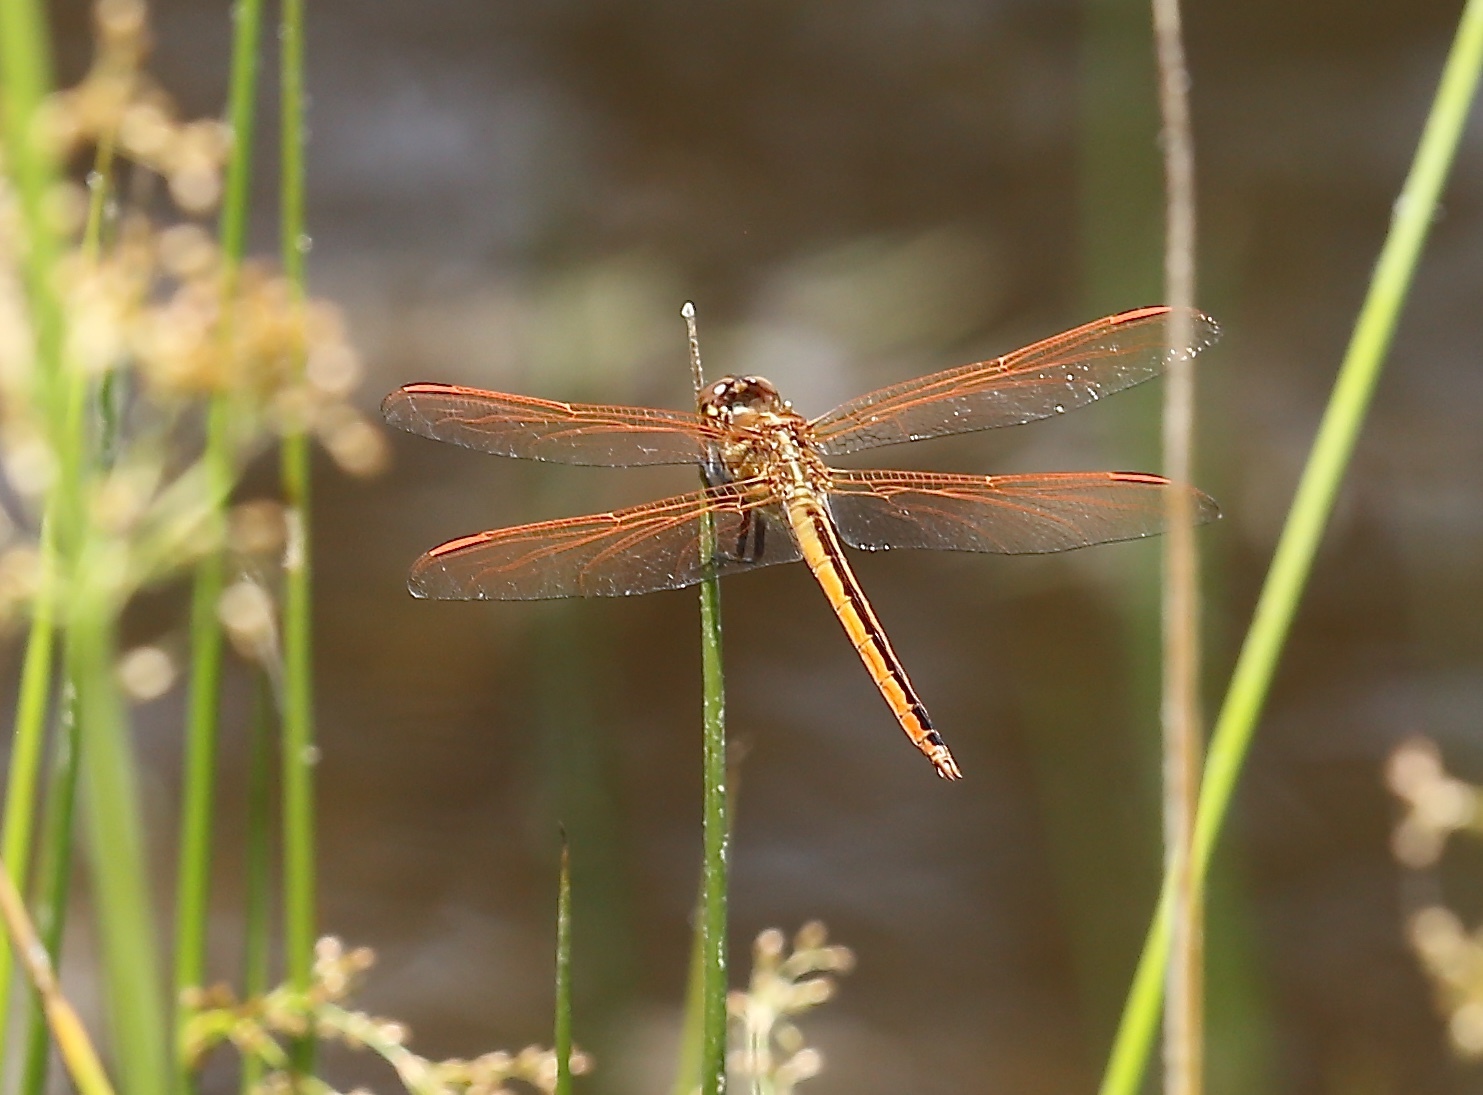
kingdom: Animalia
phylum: Arthropoda
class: Insecta
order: Odonata
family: Libellulidae
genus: Libellula
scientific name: Libellula auripennis
